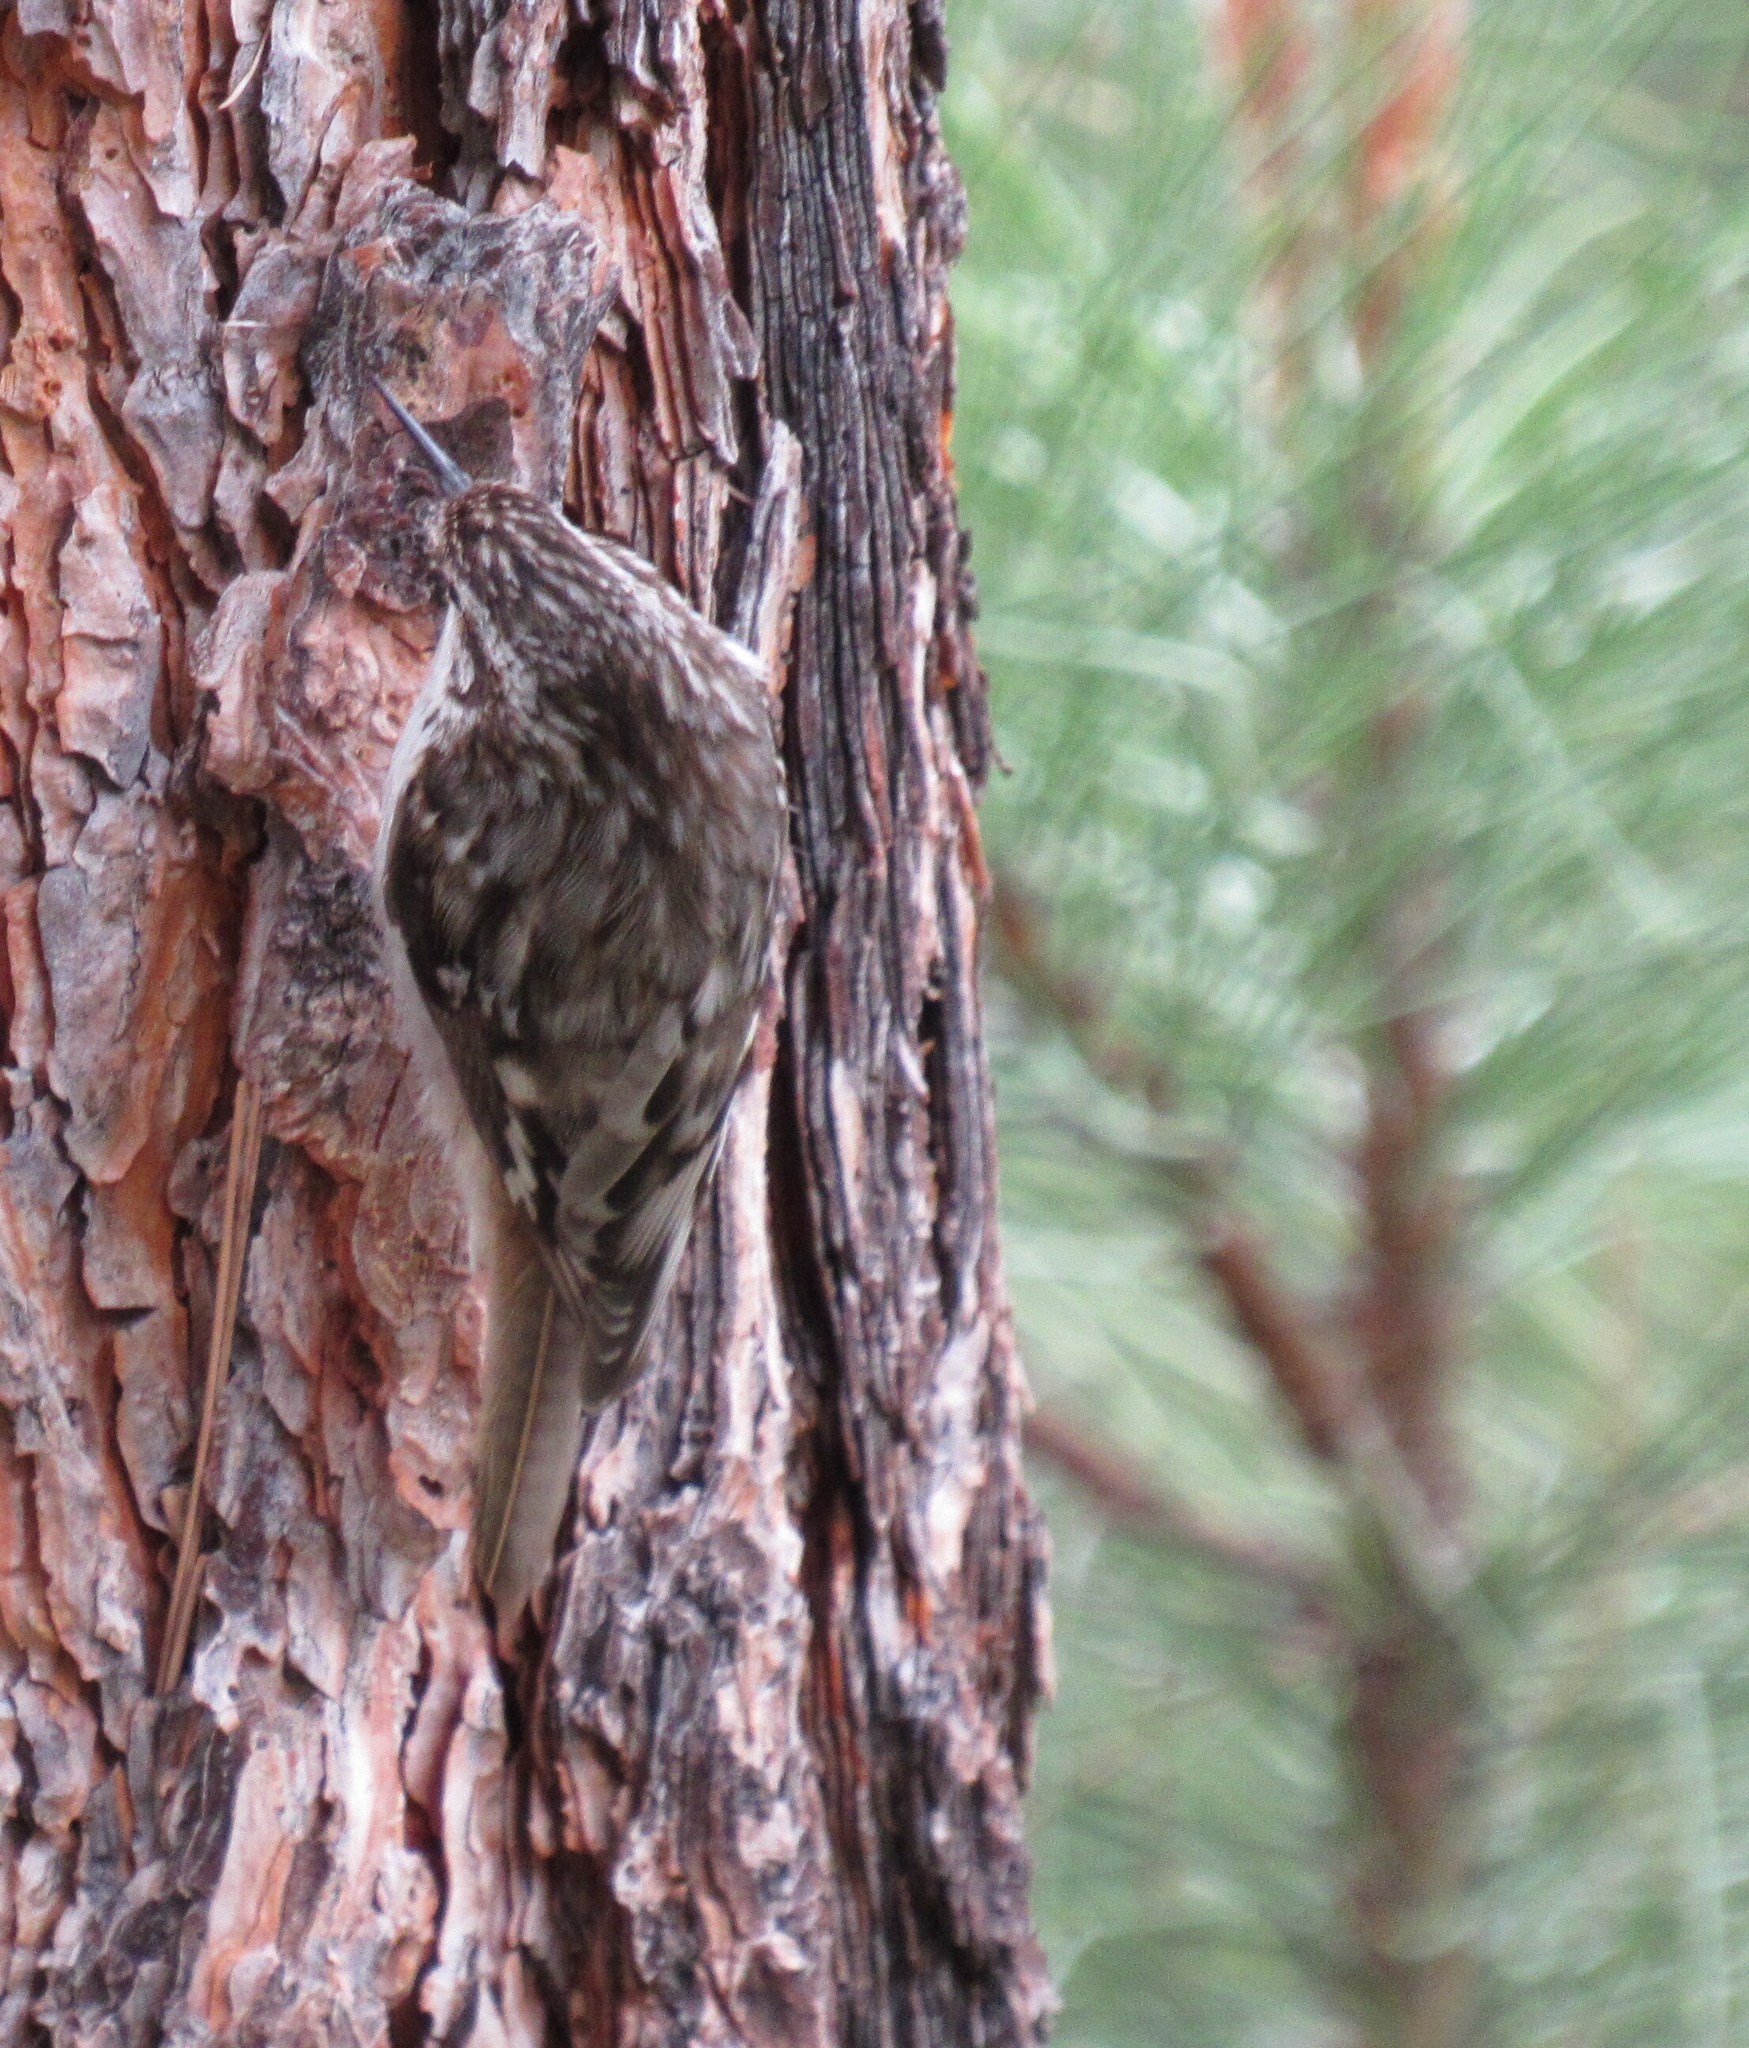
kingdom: Animalia
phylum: Chordata
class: Aves
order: Passeriformes
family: Certhiidae
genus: Certhia
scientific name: Certhia americana
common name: Brown creeper
